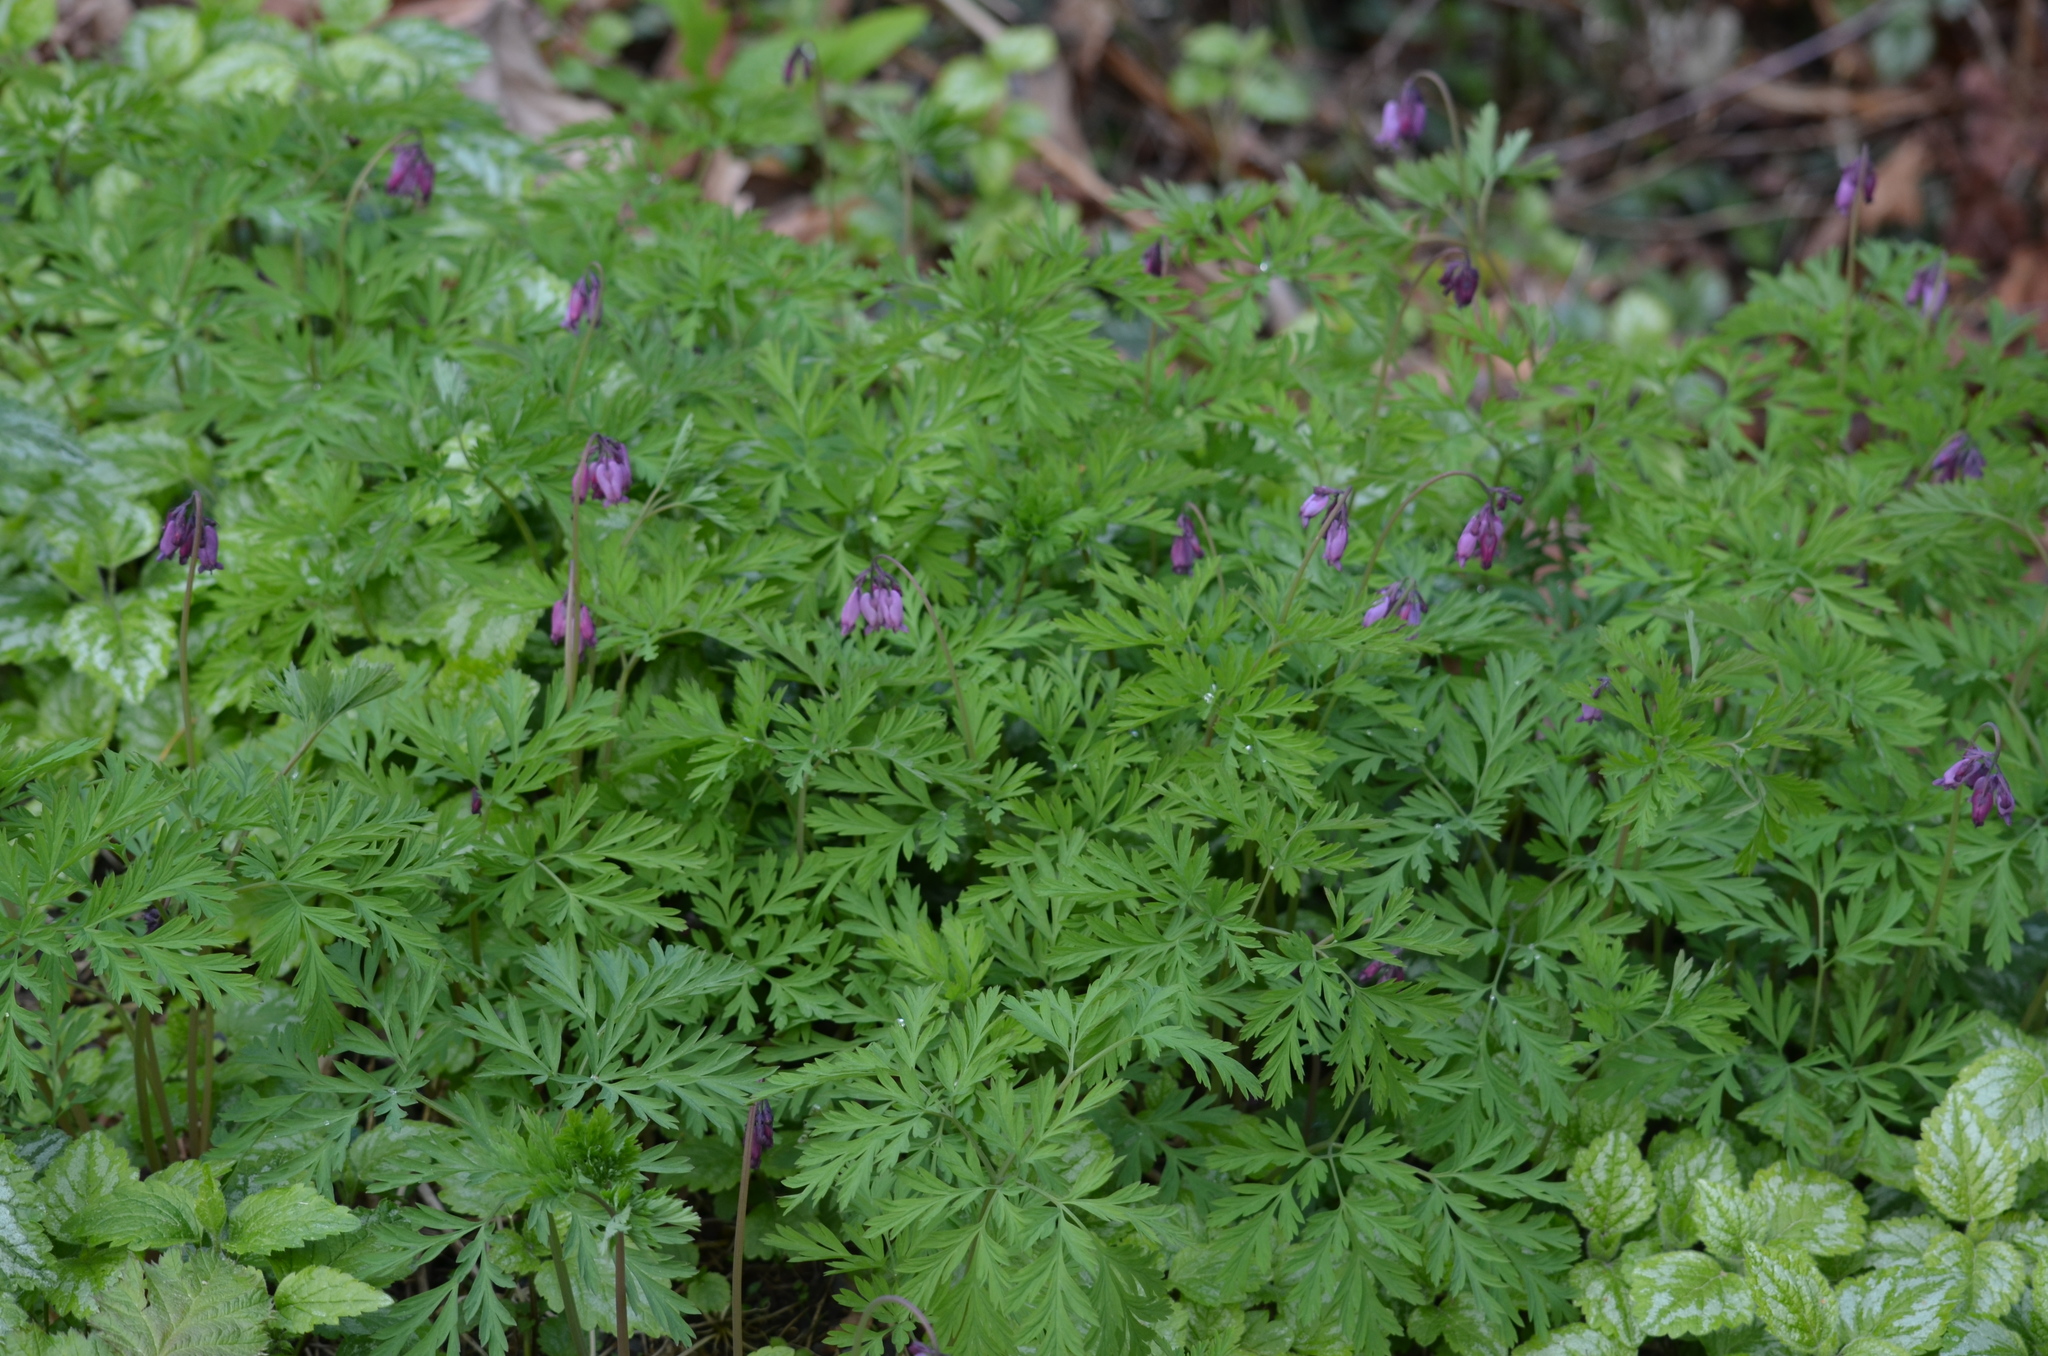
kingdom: Plantae
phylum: Tracheophyta
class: Magnoliopsida
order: Ranunculales
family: Papaveraceae
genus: Dicentra
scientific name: Dicentra formosa
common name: Bleeding-heart
